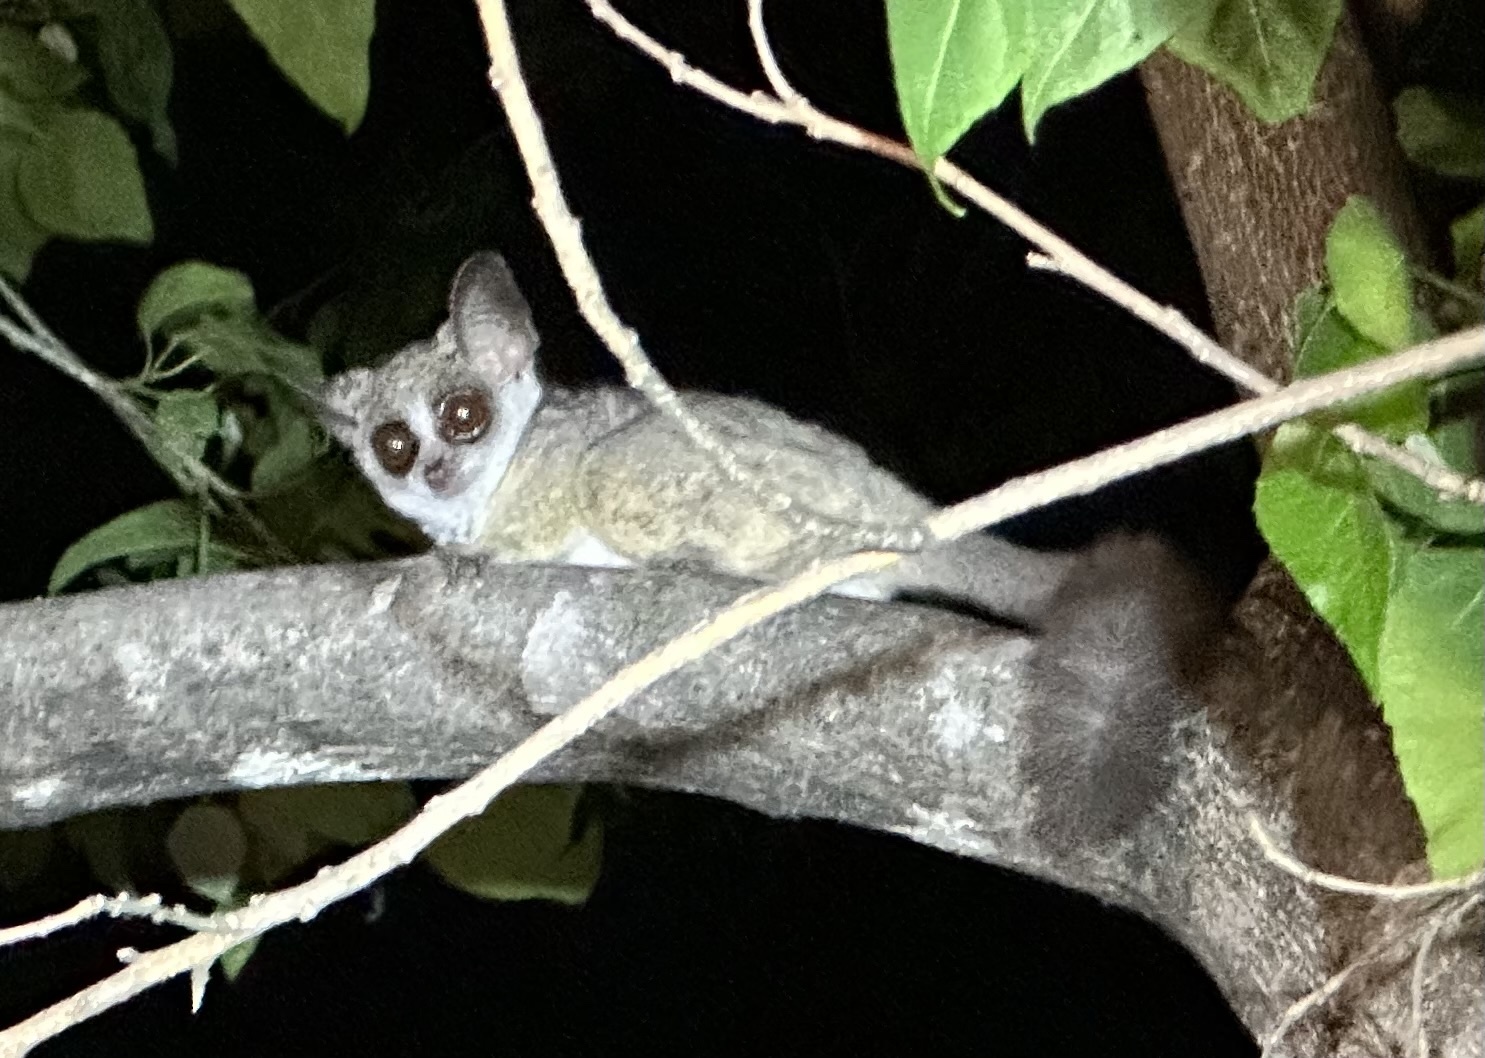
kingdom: Animalia
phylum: Chordata
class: Mammalia
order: Primates
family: Galagidae
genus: Galago
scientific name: Galago moholi
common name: Moholi bushbaby
